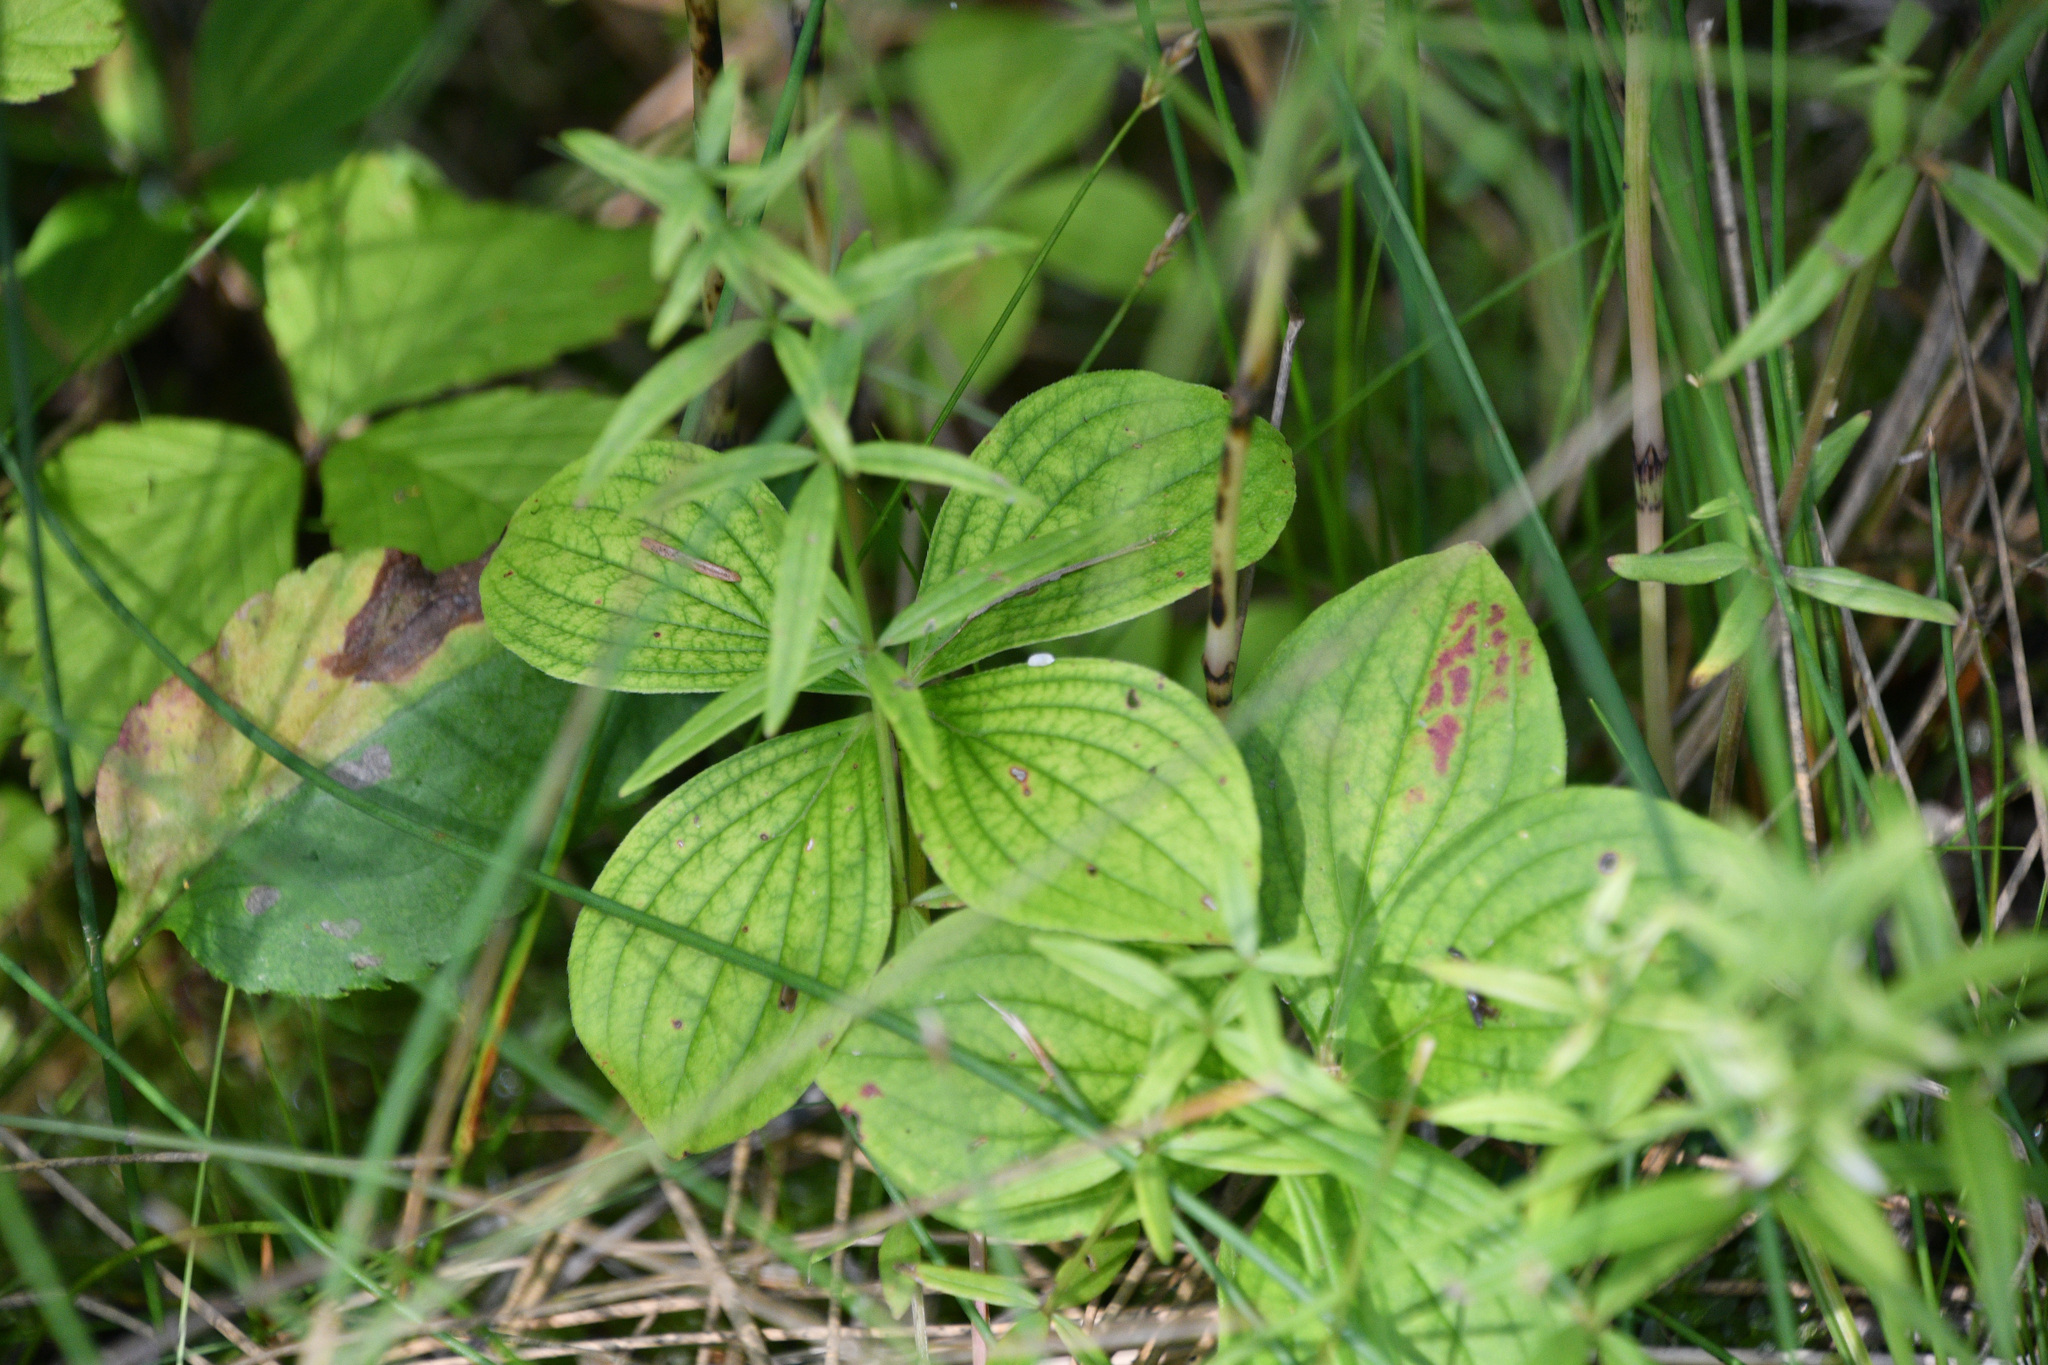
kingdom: Plantae
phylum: Tracheophyta
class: Magnoliopsida
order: Cornales
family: Cornaceae
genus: Cornus
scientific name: Cornus canadensis
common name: Creeping dogwood
